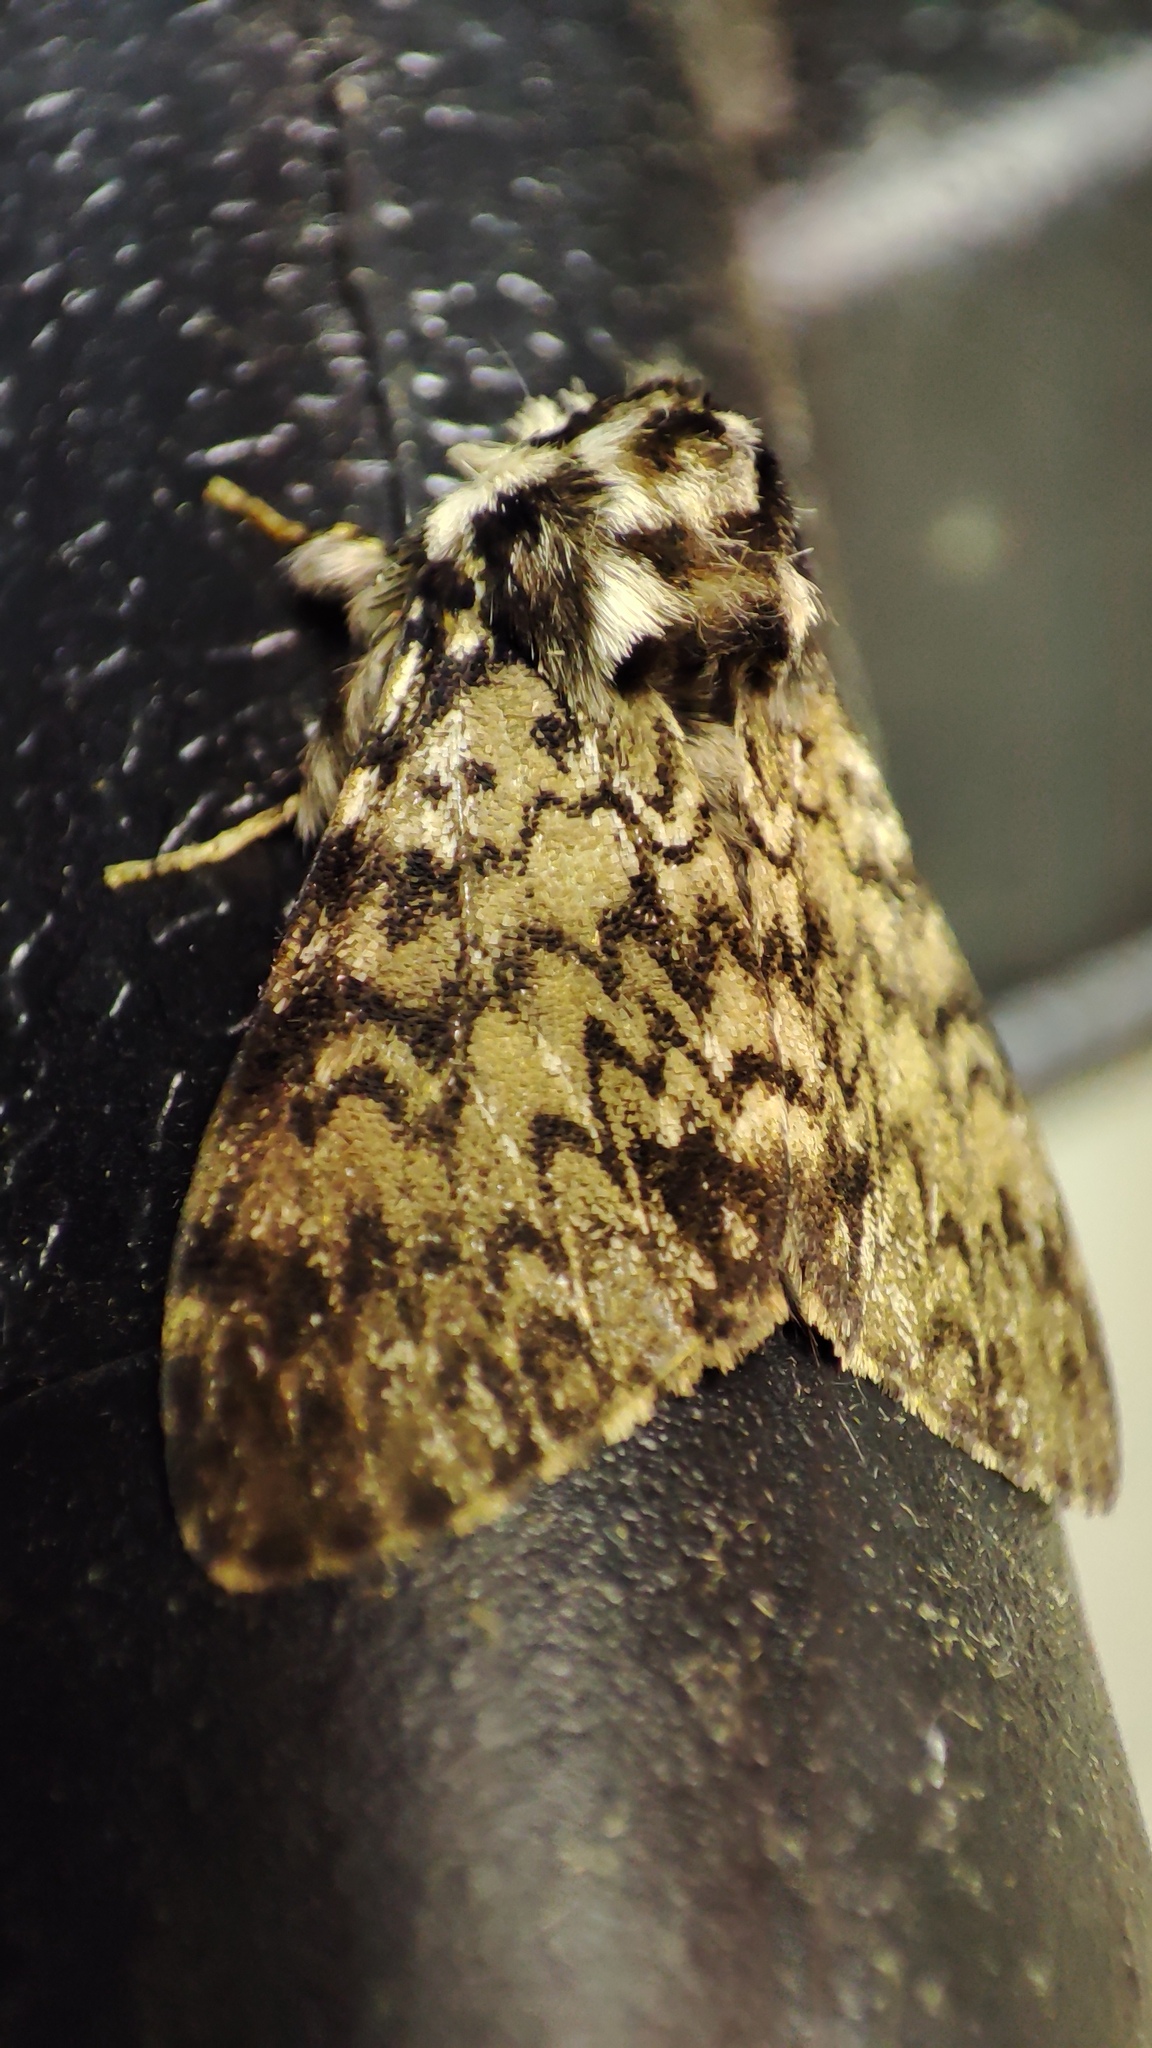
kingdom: Animalia
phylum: Arthropoda
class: Insecta
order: Lepidoptera
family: Erebidae
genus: Lymantria
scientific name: Lymantria kettlewelli
